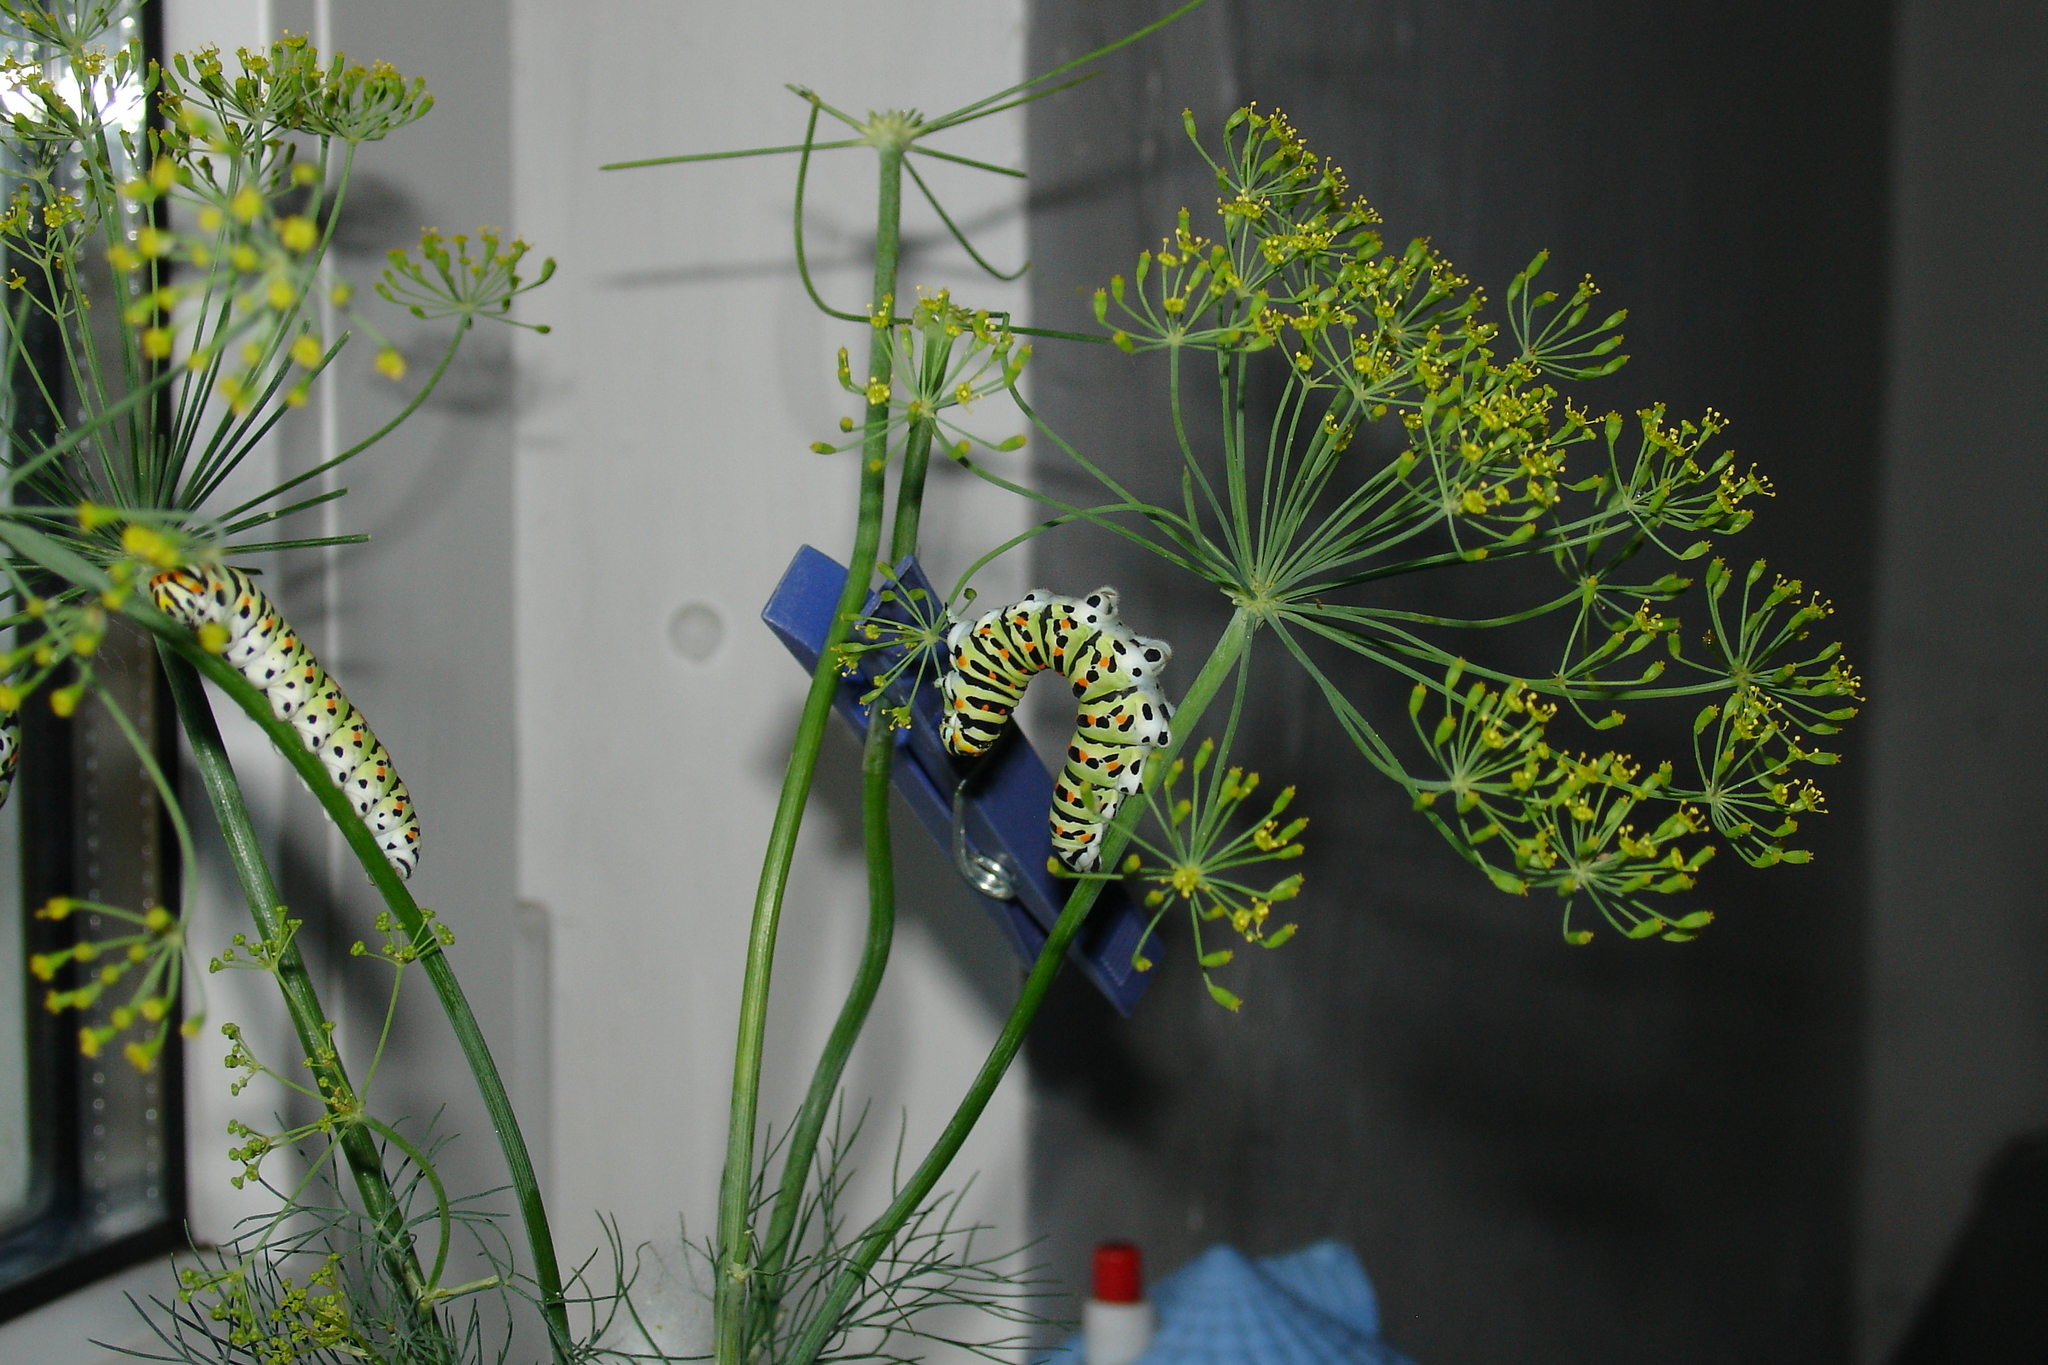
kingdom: Animalia
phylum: Arthropoda
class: Insecta
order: Lepidoptera
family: Papilionidae
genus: Papilio
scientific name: Papilio machaon
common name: Swallowtail
